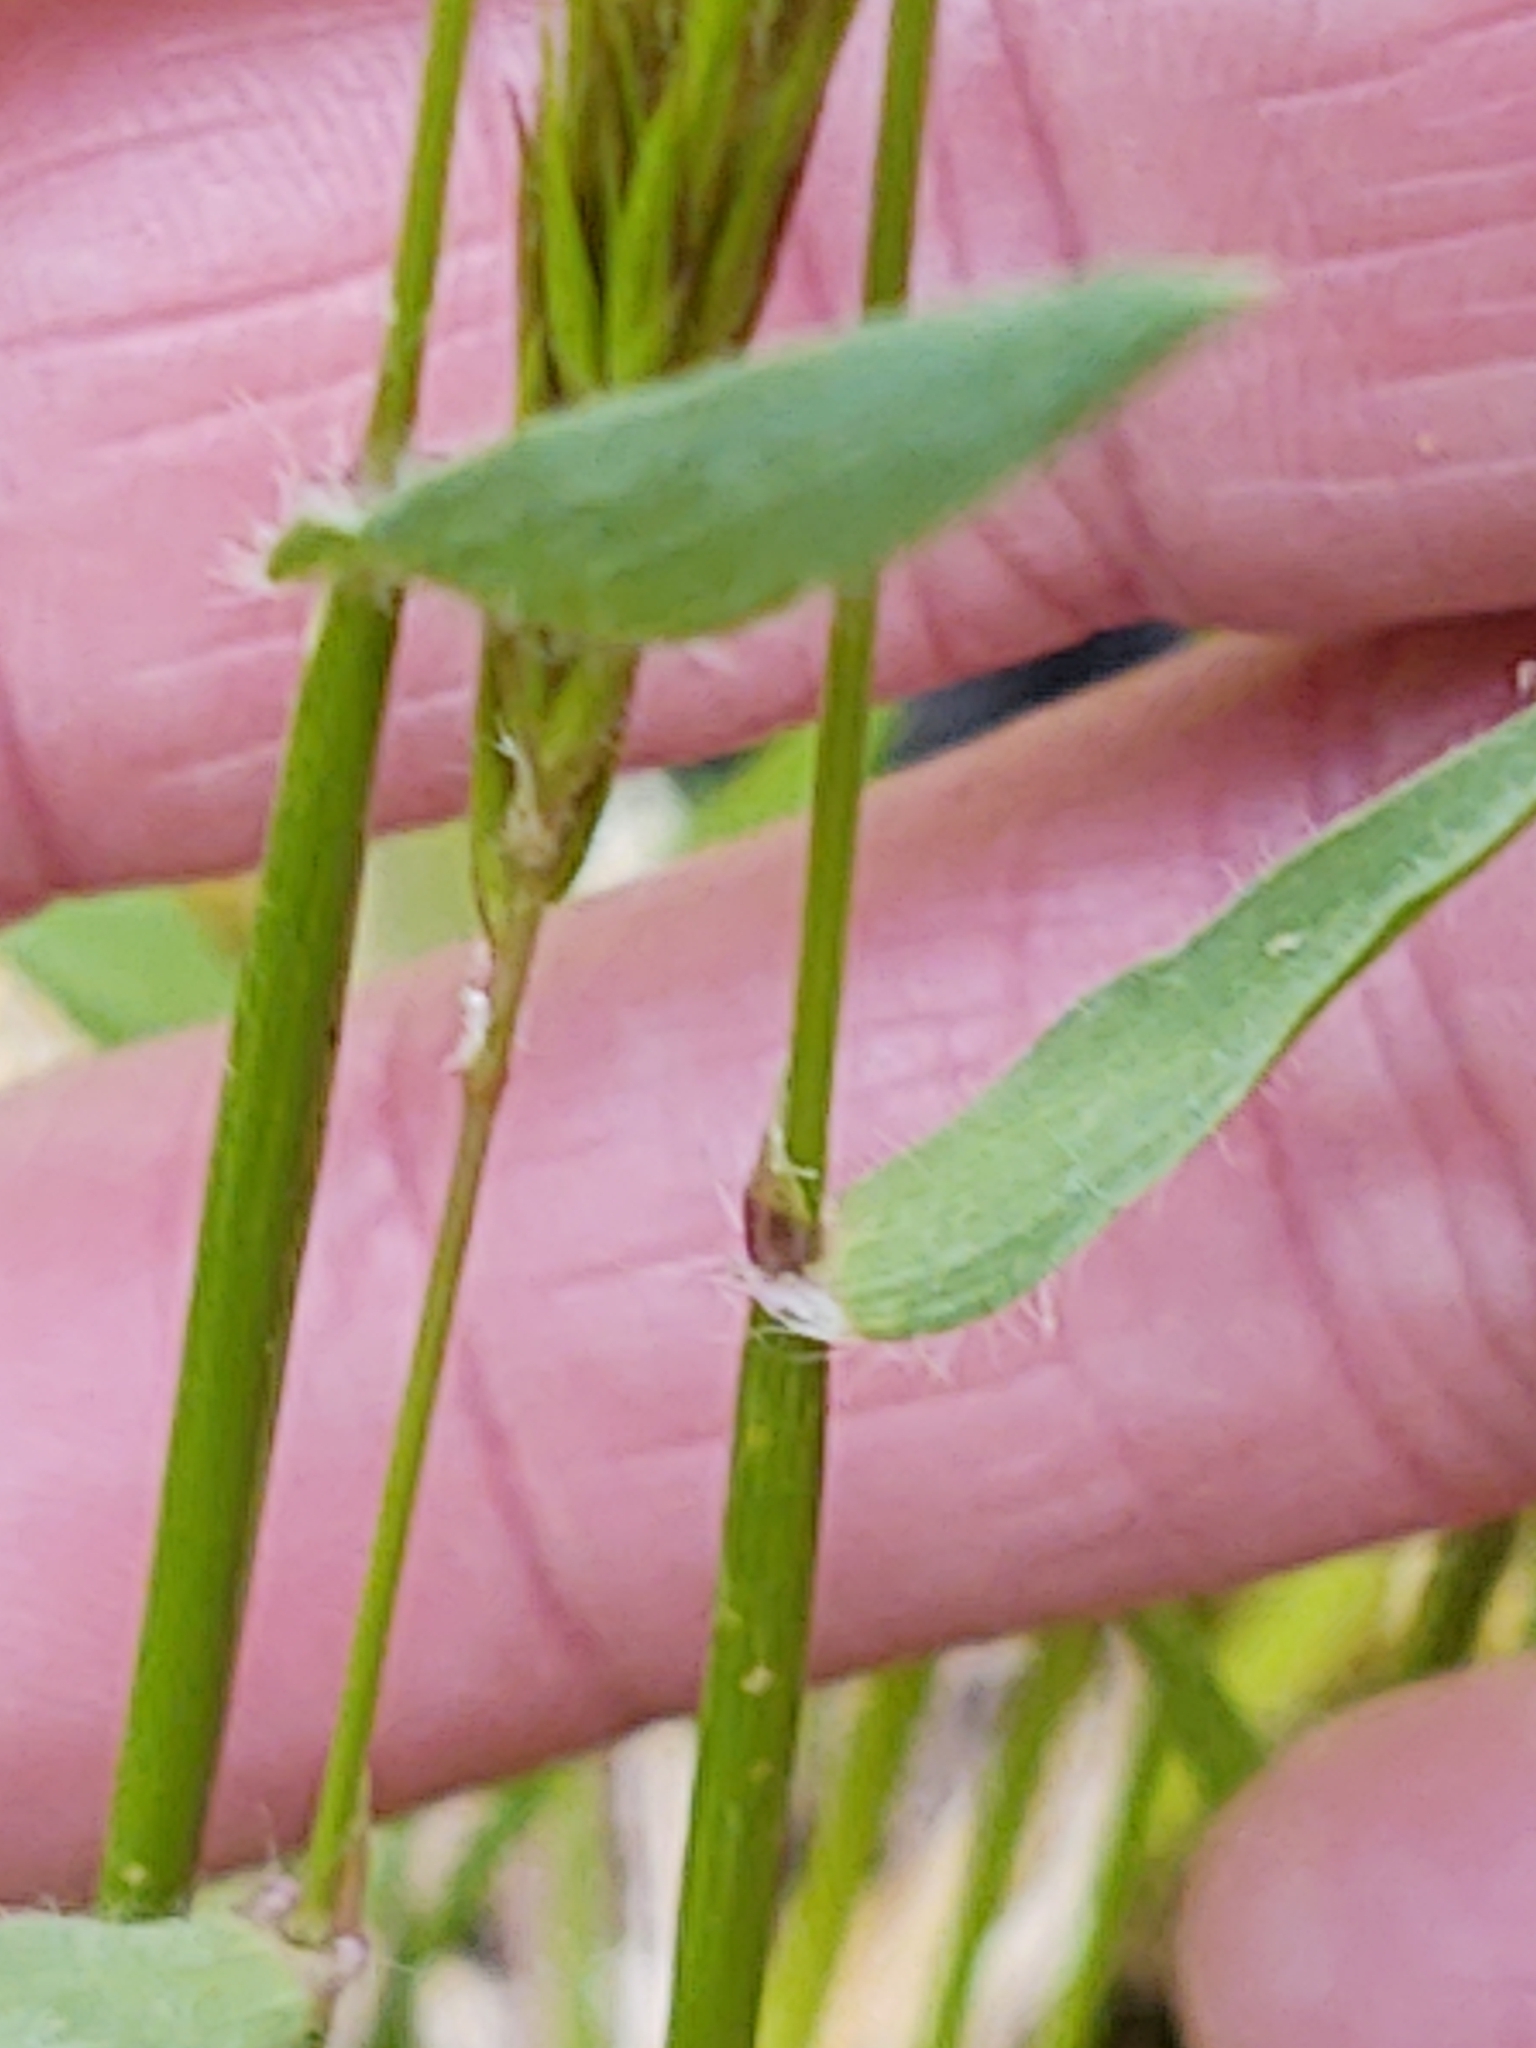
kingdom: Plantae
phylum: Tracheophyta
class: Liliopsida
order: Poales
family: Poaceae
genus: Anthoxanthum
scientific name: Anthoxanthum odoratum
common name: Sweet vernalgrass
